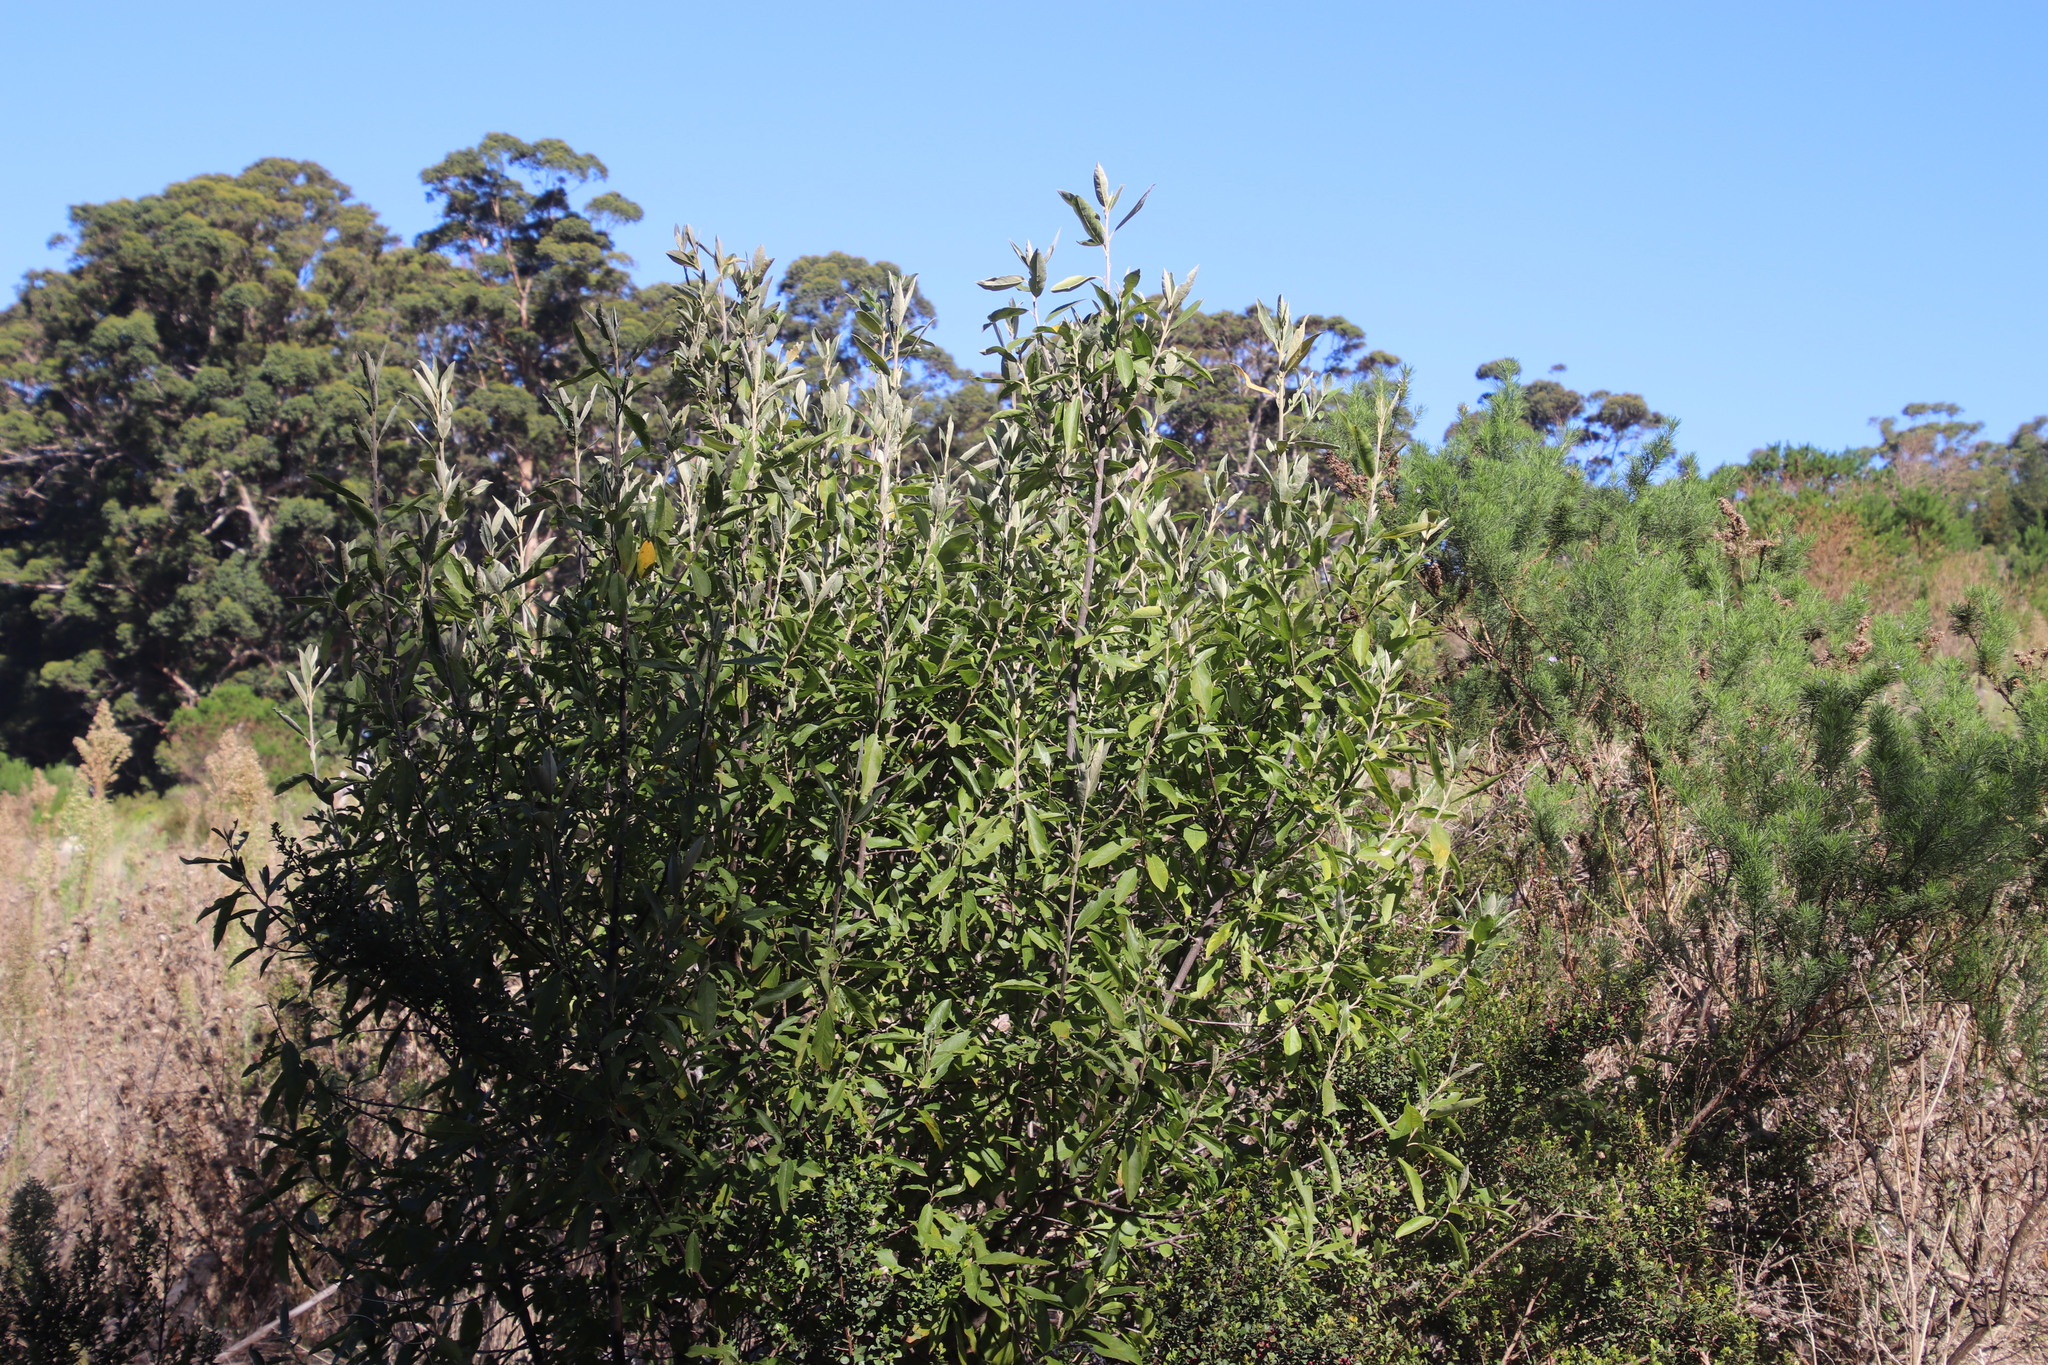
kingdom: Plantae
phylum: Tracheophyta
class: Magnoliopsida
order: Malpighiales
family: Achariaceae
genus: Kiggelaria
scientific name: Kiggelaria africana
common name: Wild peach
